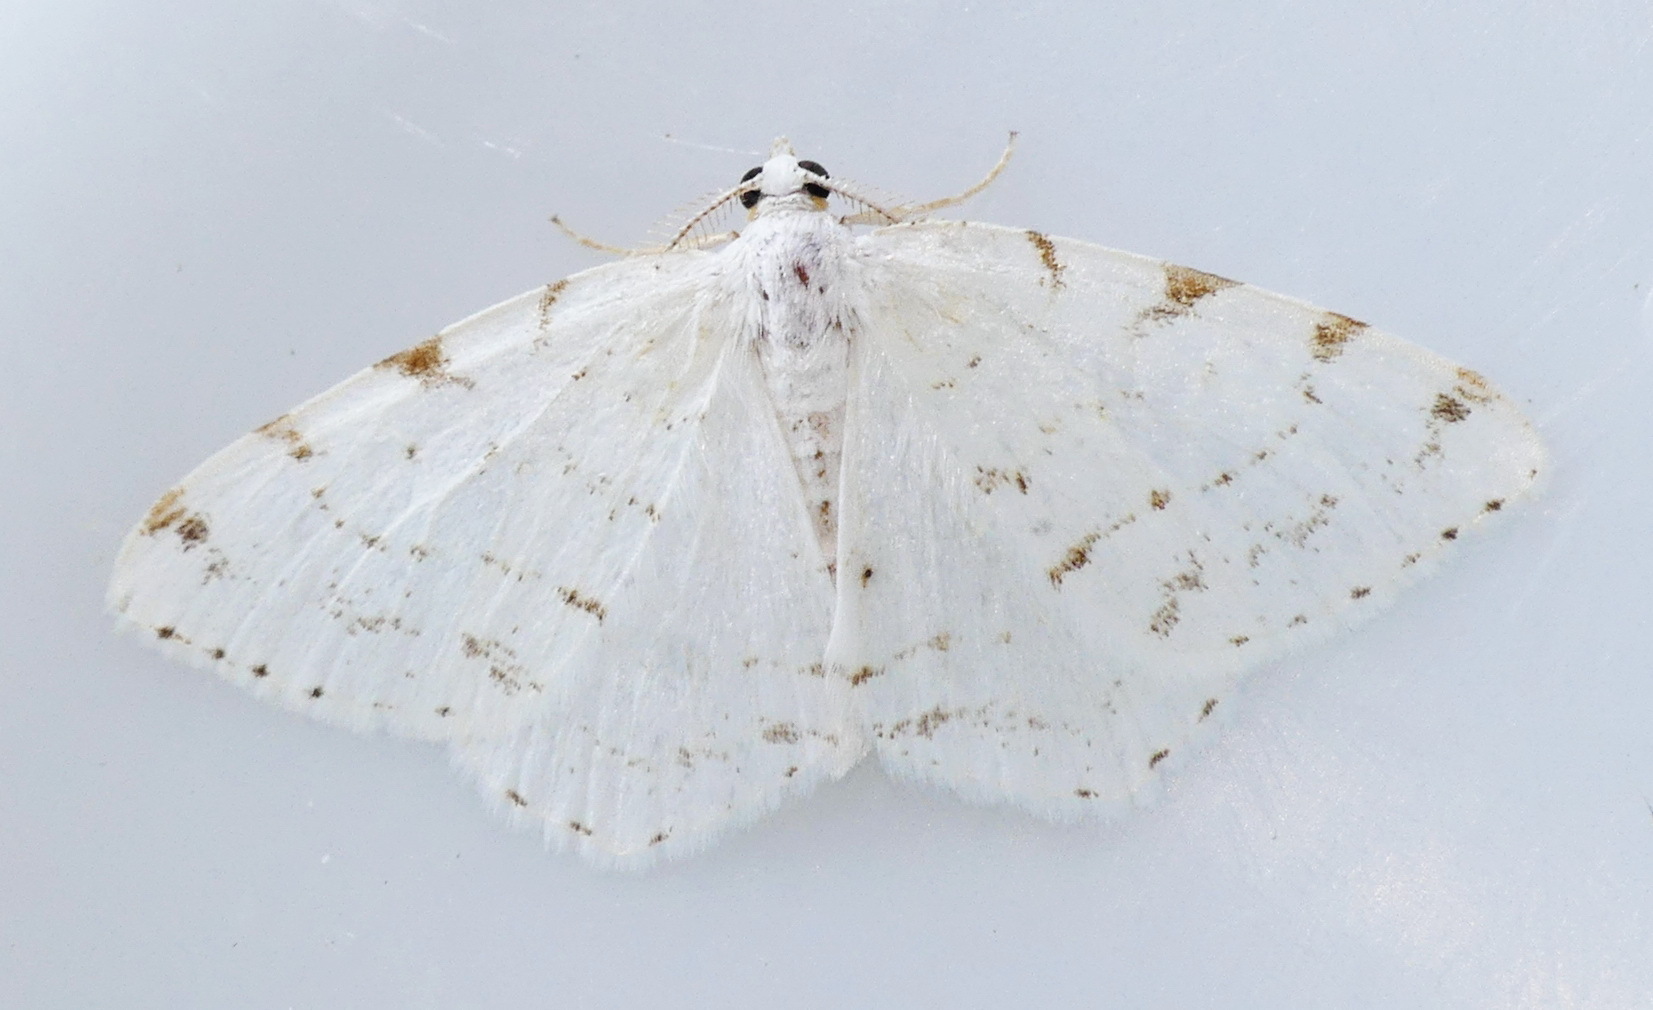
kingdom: Animalia
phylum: Arthropoda
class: Insecta
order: Lepidoptera
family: Geometridae
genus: Macaria
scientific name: Macaria pustularia
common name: Lesser maple spanworm moth
